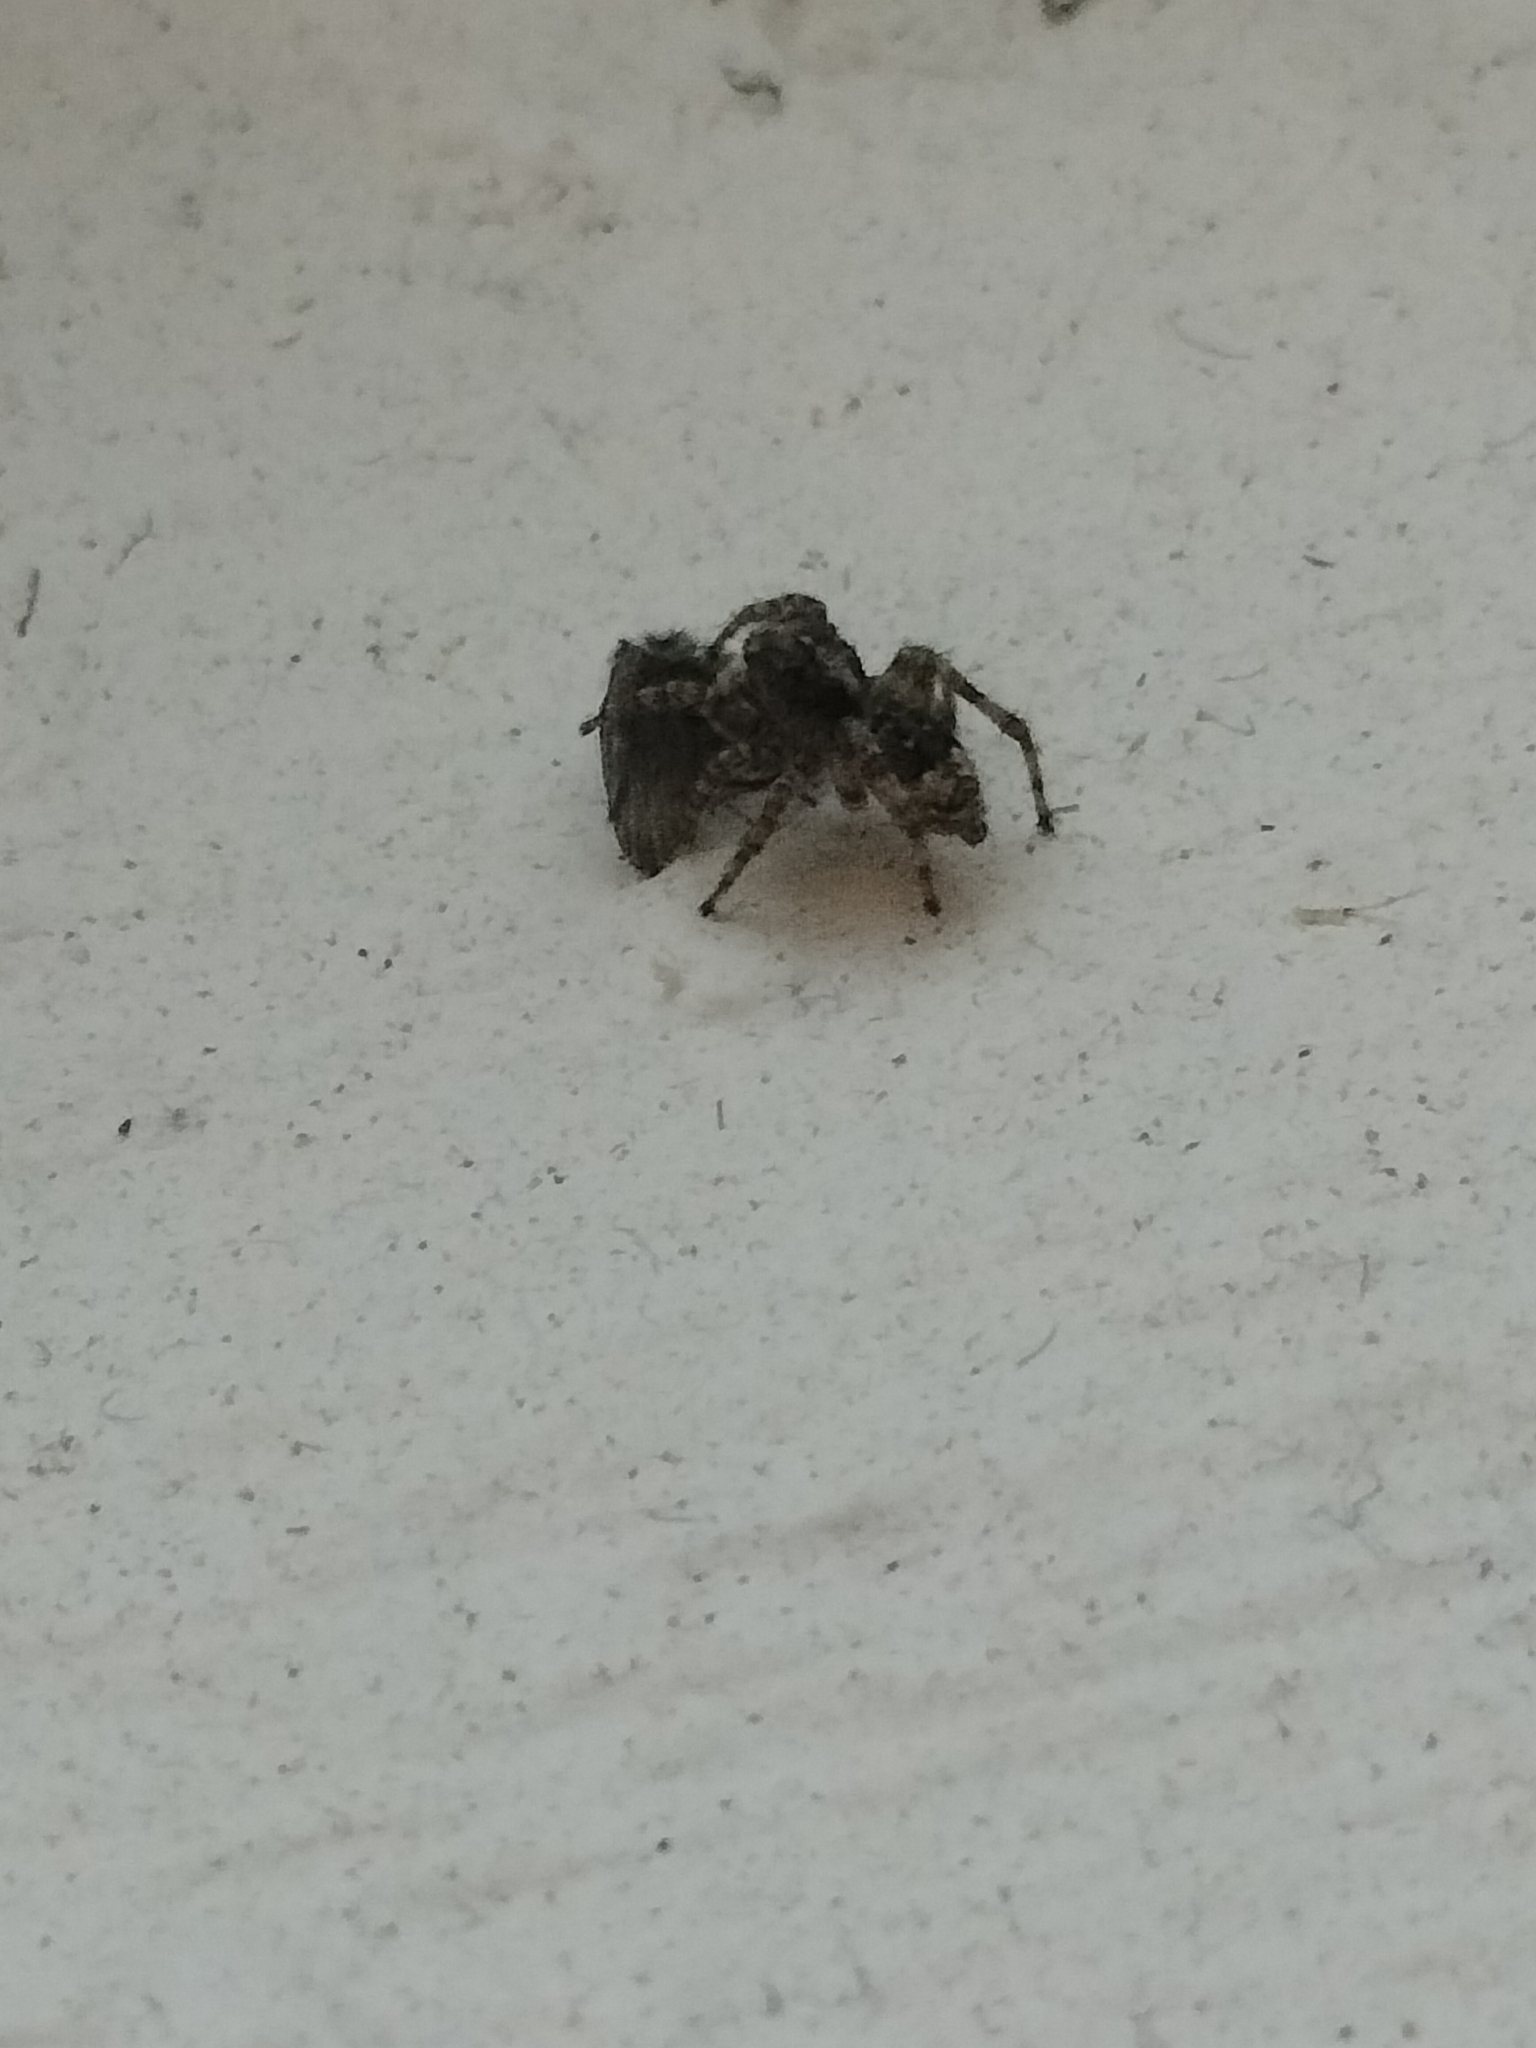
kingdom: Animalia
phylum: Arthropoda
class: Arachnida
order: Araneae
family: Salticidae
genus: Attulus
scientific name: Attulus fasciger
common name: Asiatic wall jumping spider
